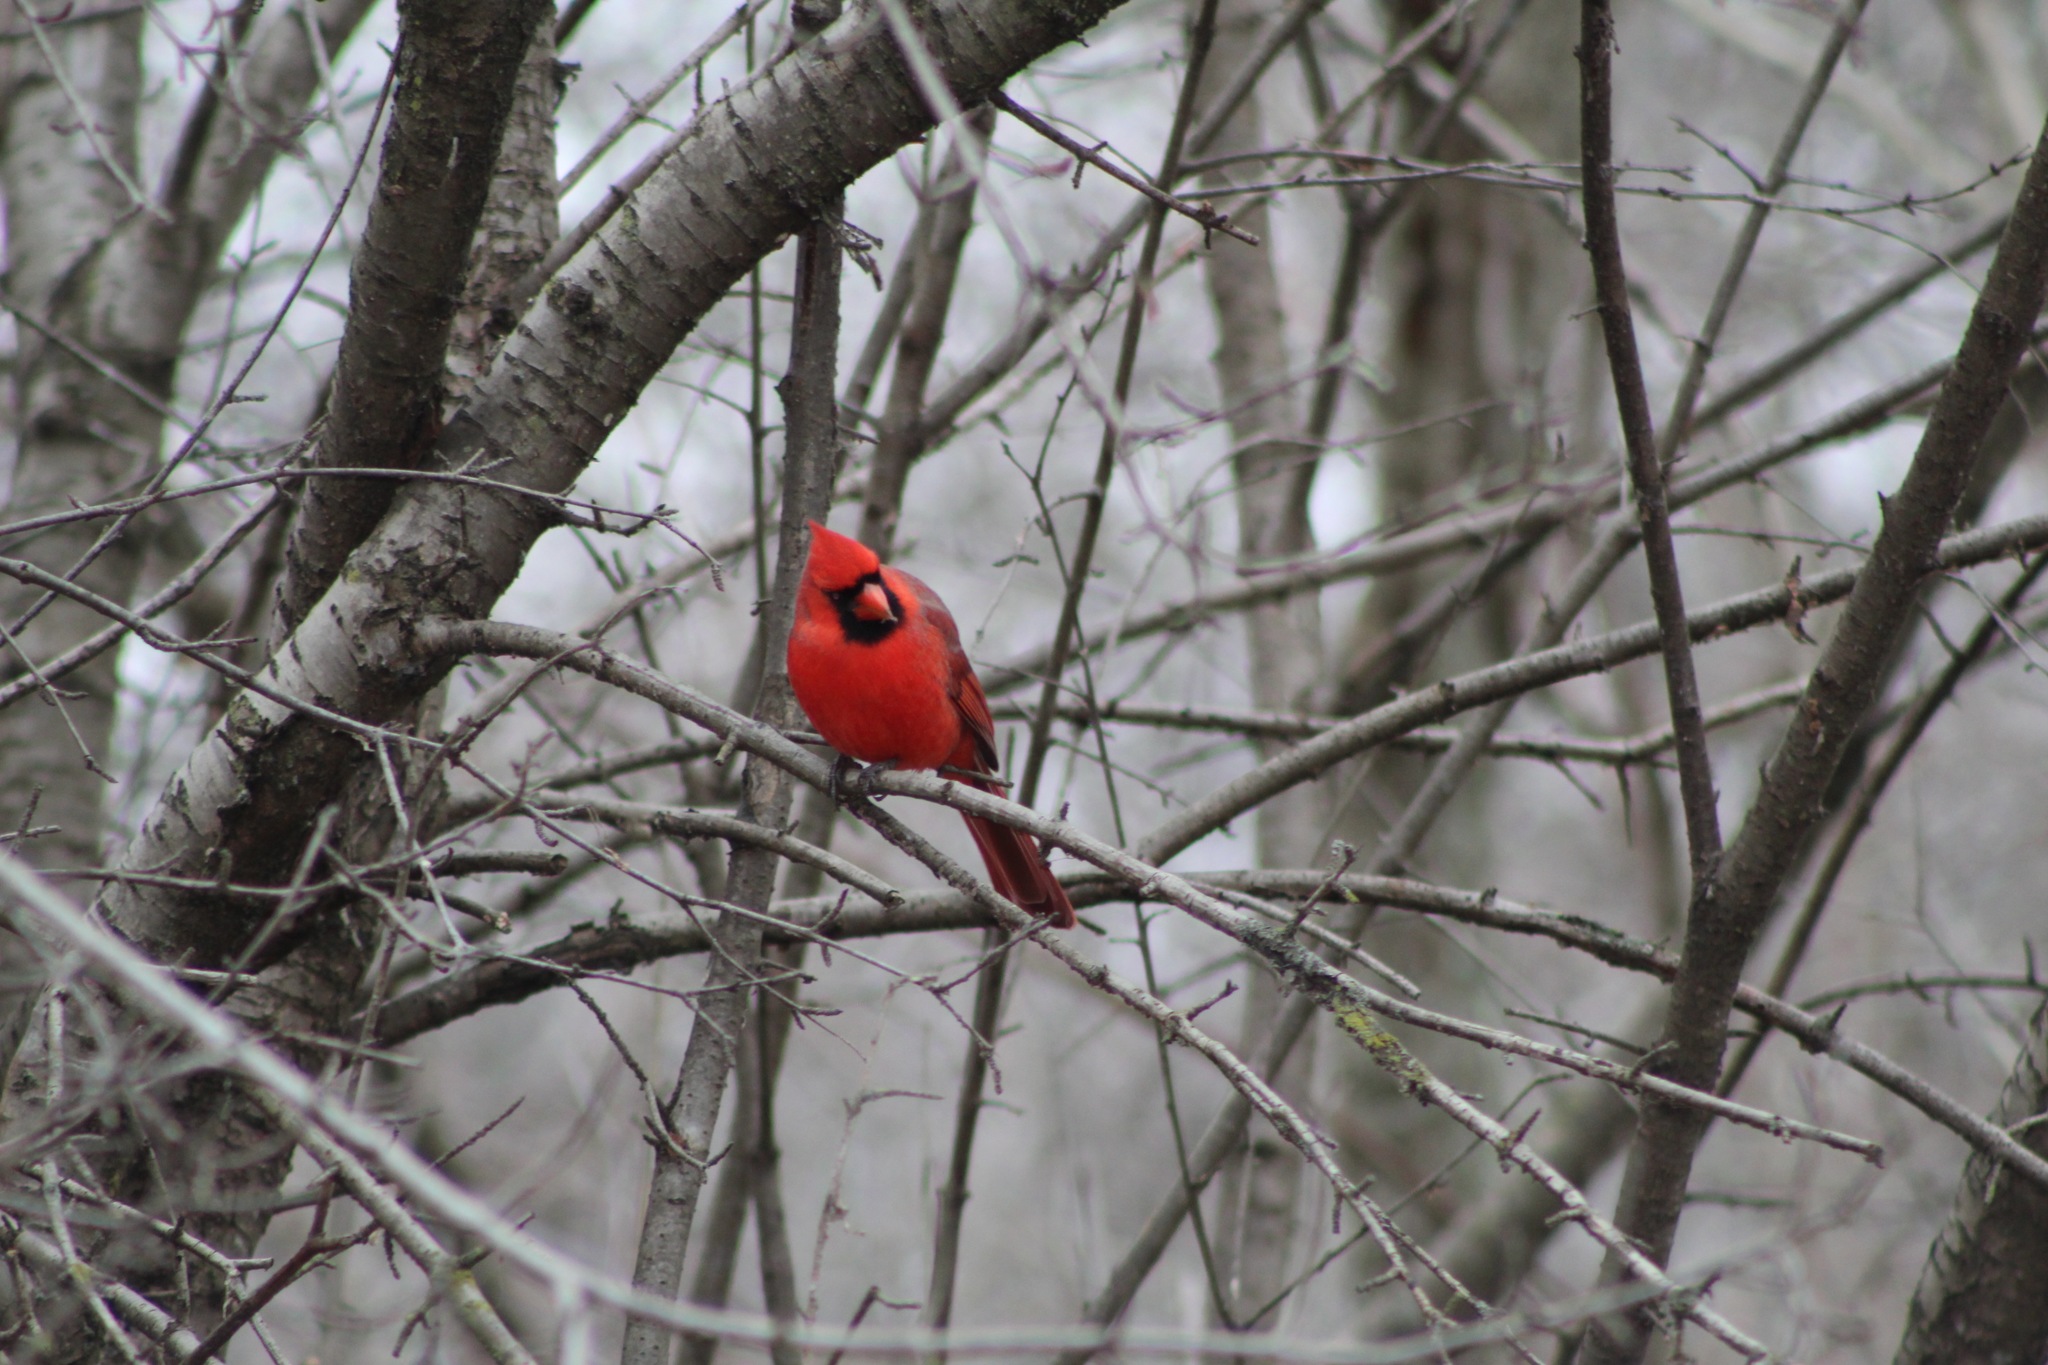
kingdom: Animalia
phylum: Chordata
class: Aves
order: Passeriformes
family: Cardinalidae
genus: Cardinalis
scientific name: Cardinalis cardinalis
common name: Northern cardinal
